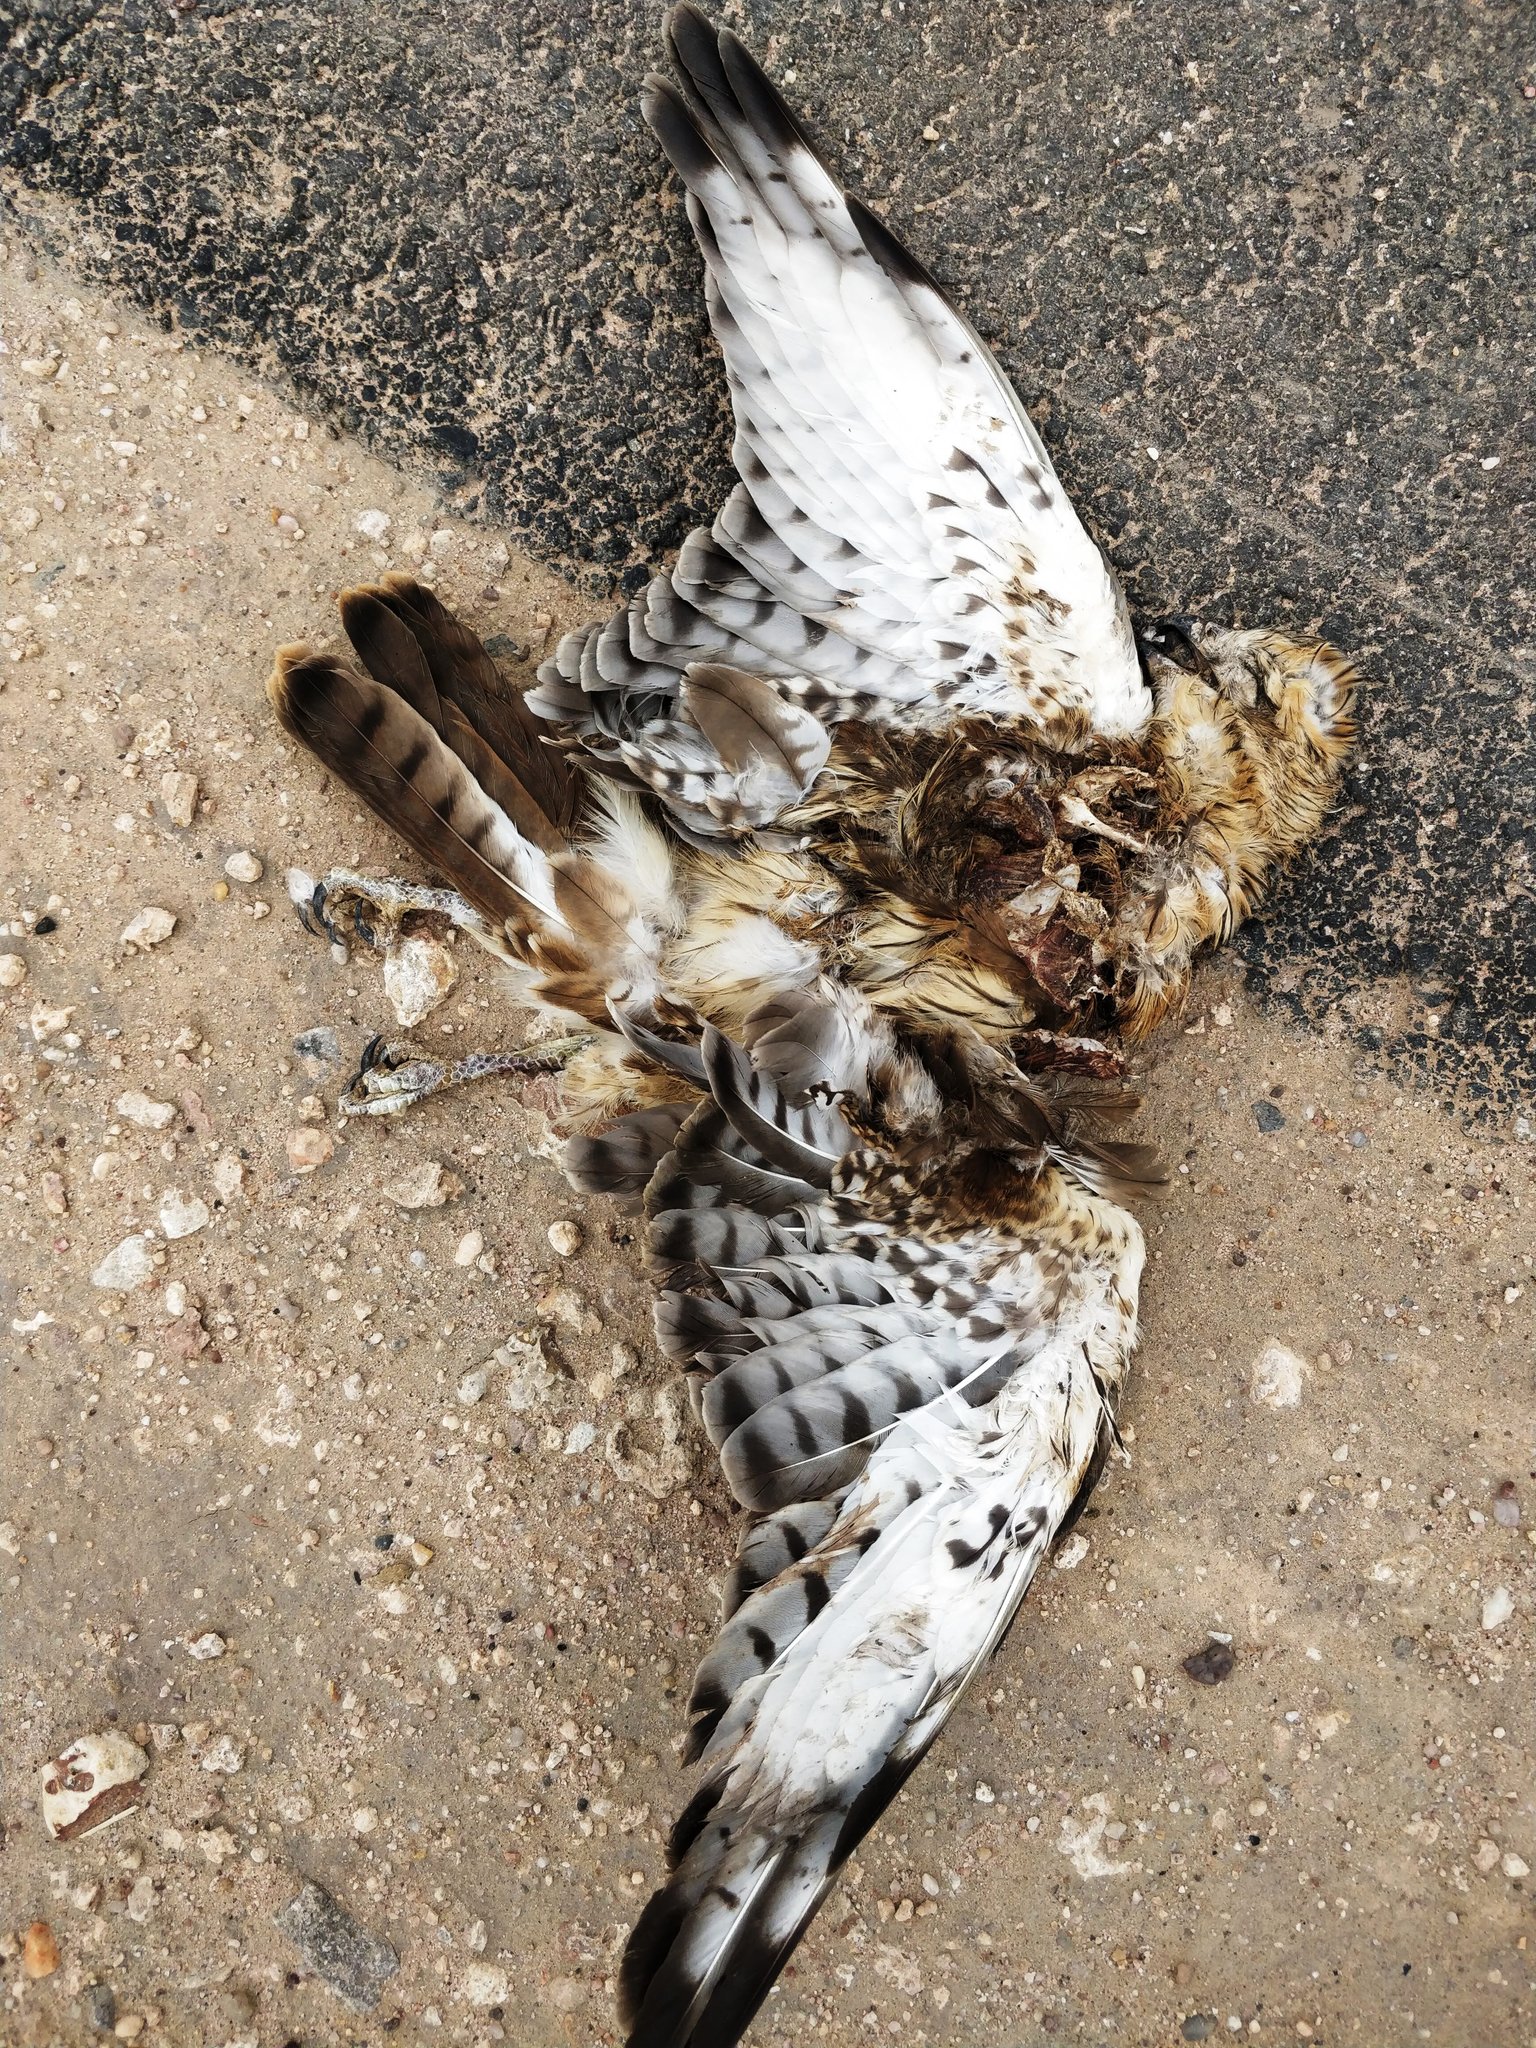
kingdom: Animalia
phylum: Chordata
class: Aves
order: Accipitriformes
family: Accipitridae
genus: Butastur
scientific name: Butastur teesa
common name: White-eyed buzzard
